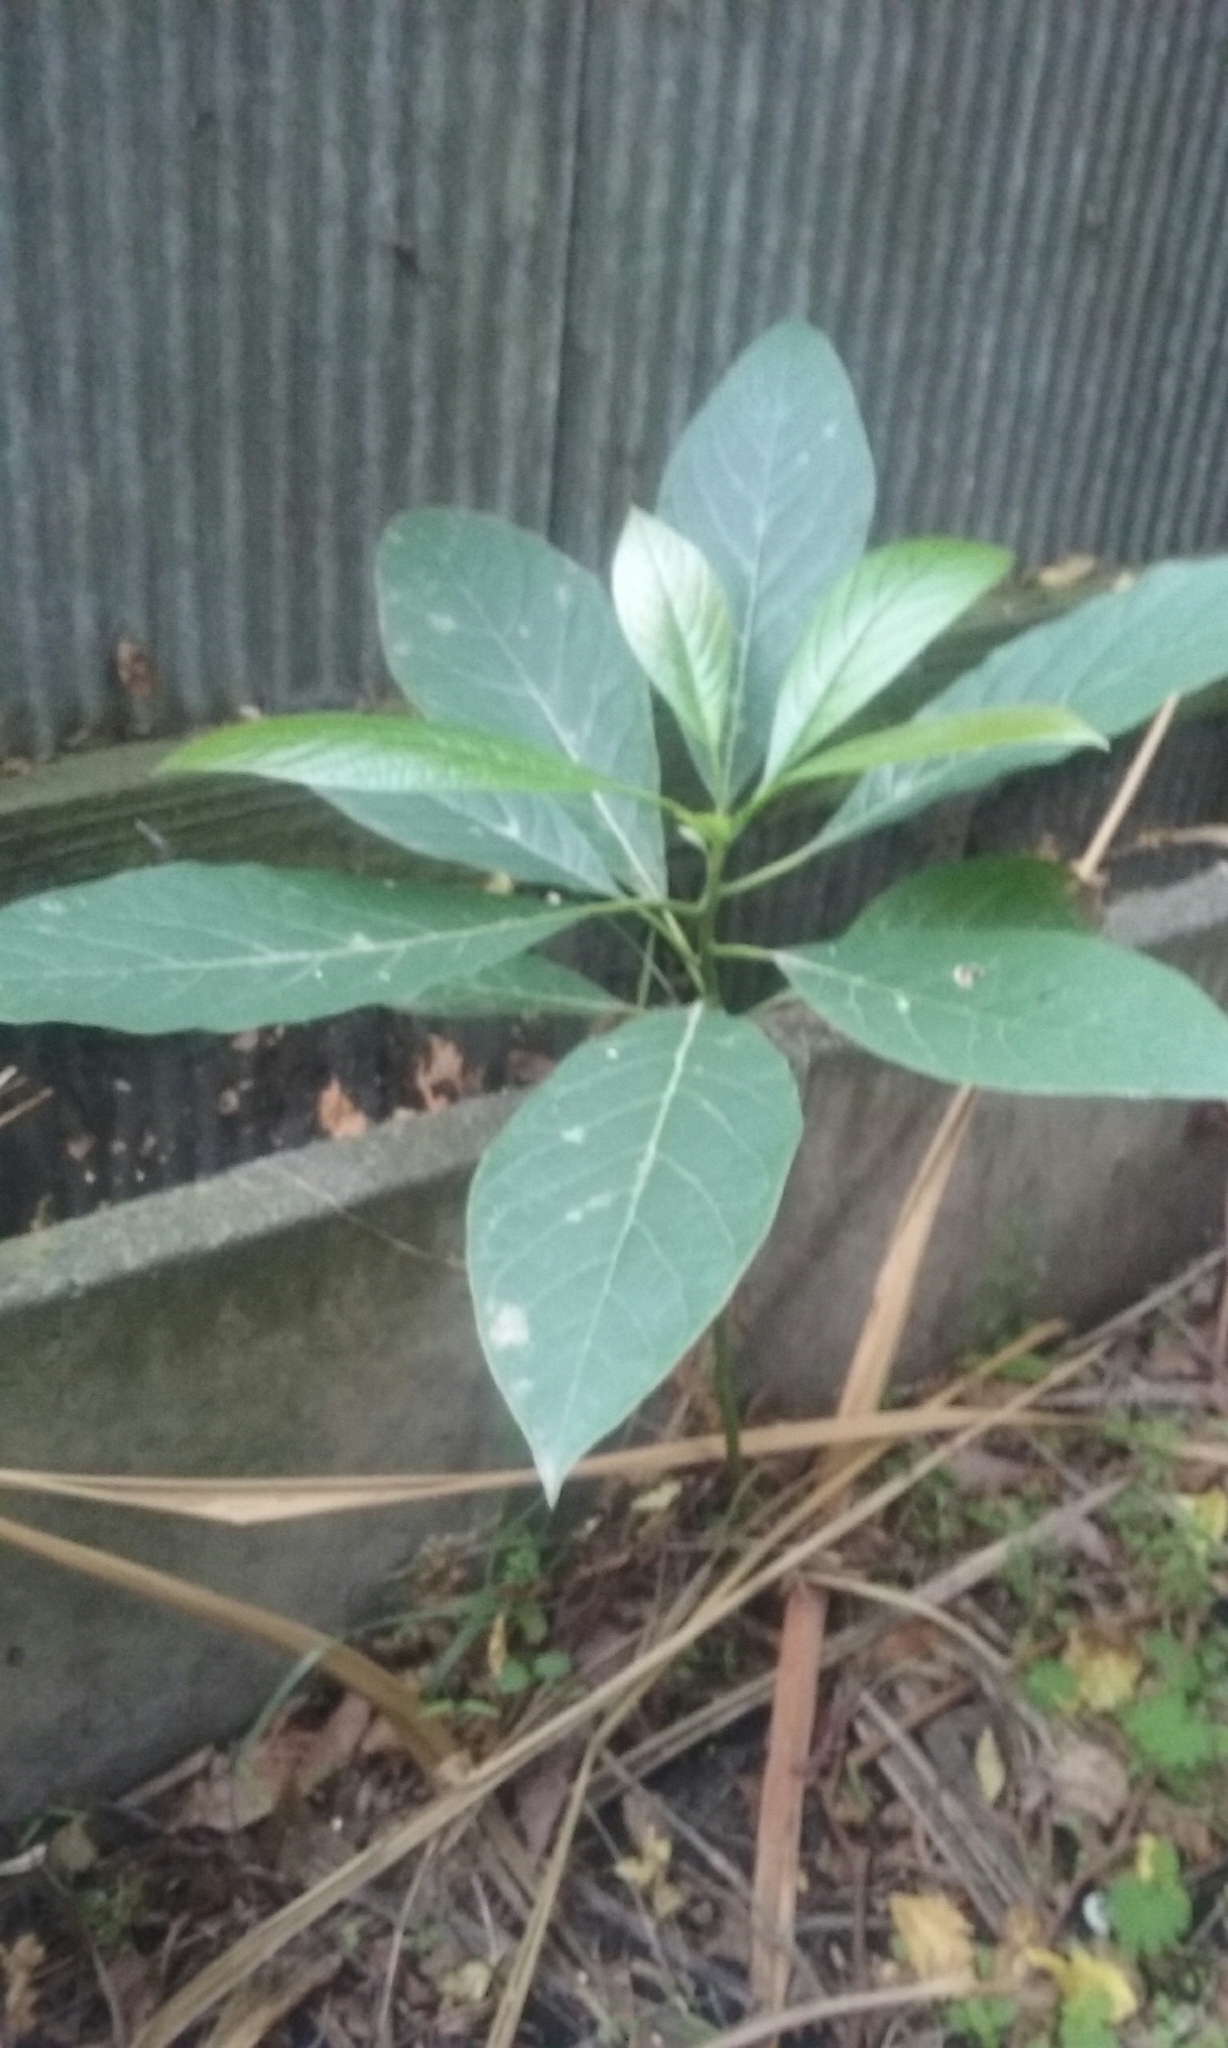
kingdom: Plantae
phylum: Tracheophyta
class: Magnoliopsida
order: Laurales
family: Lauraceae
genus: Persea
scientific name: Persea americana
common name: Avocado
